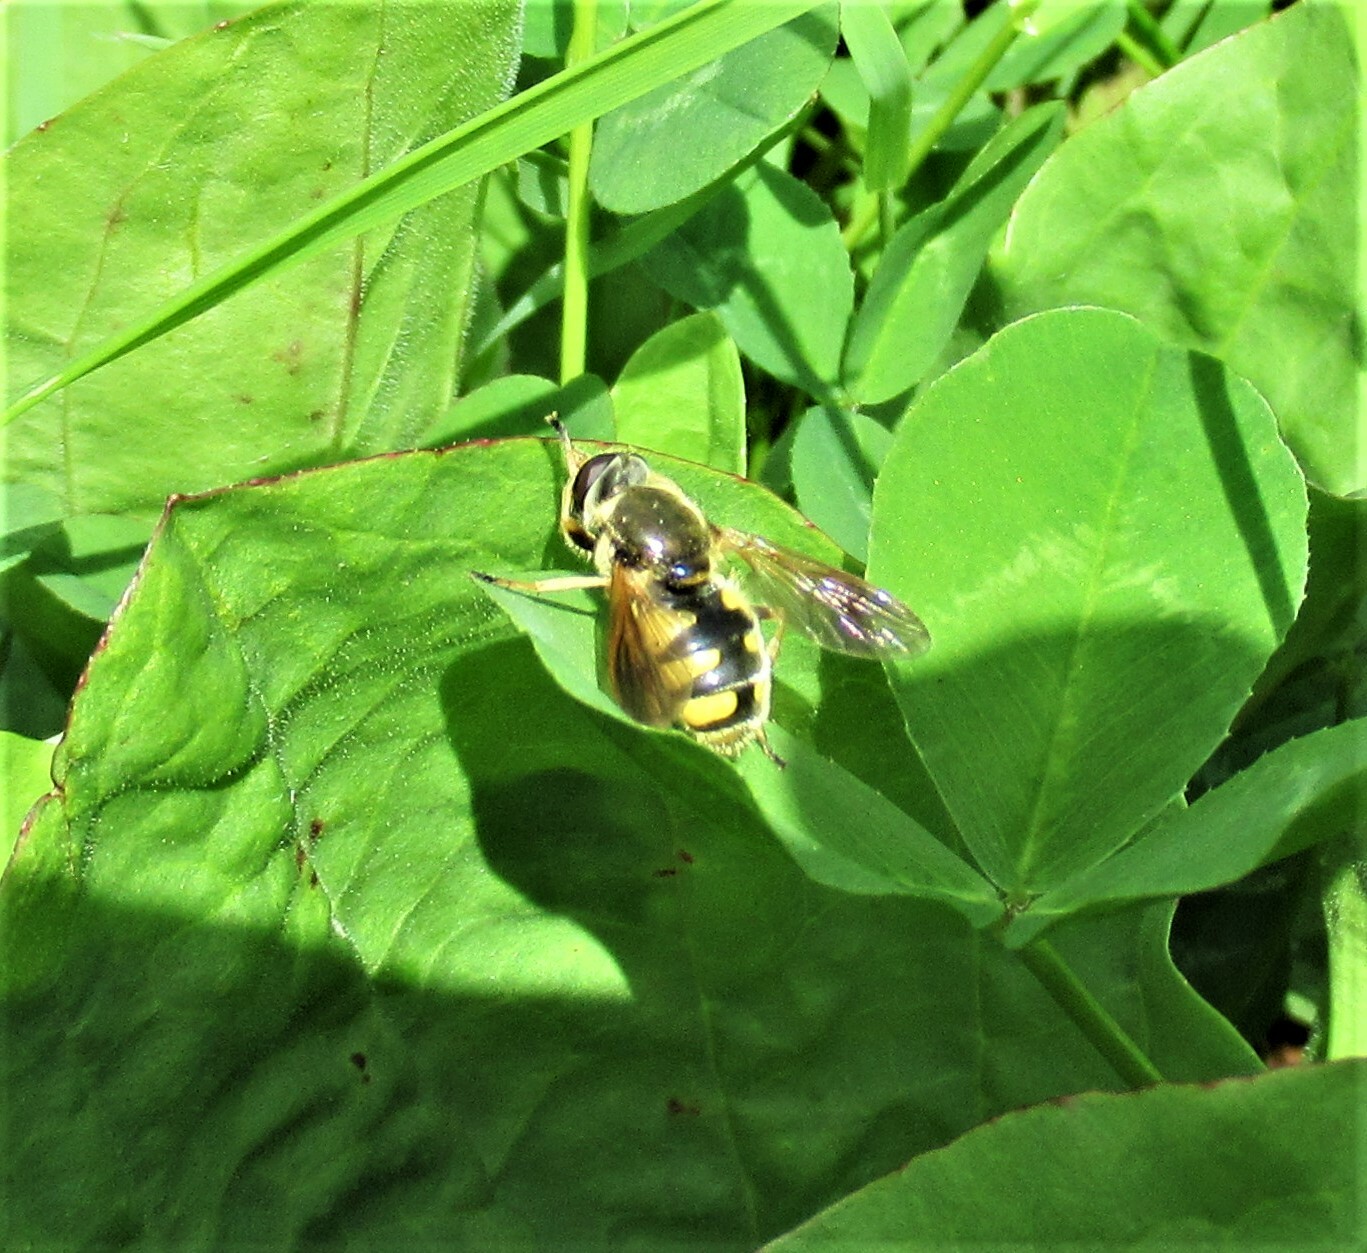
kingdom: Animalia
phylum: Arthropoda
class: Insecta
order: Diptera
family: Syrphidae
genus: Blera
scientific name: Blera humeralis
